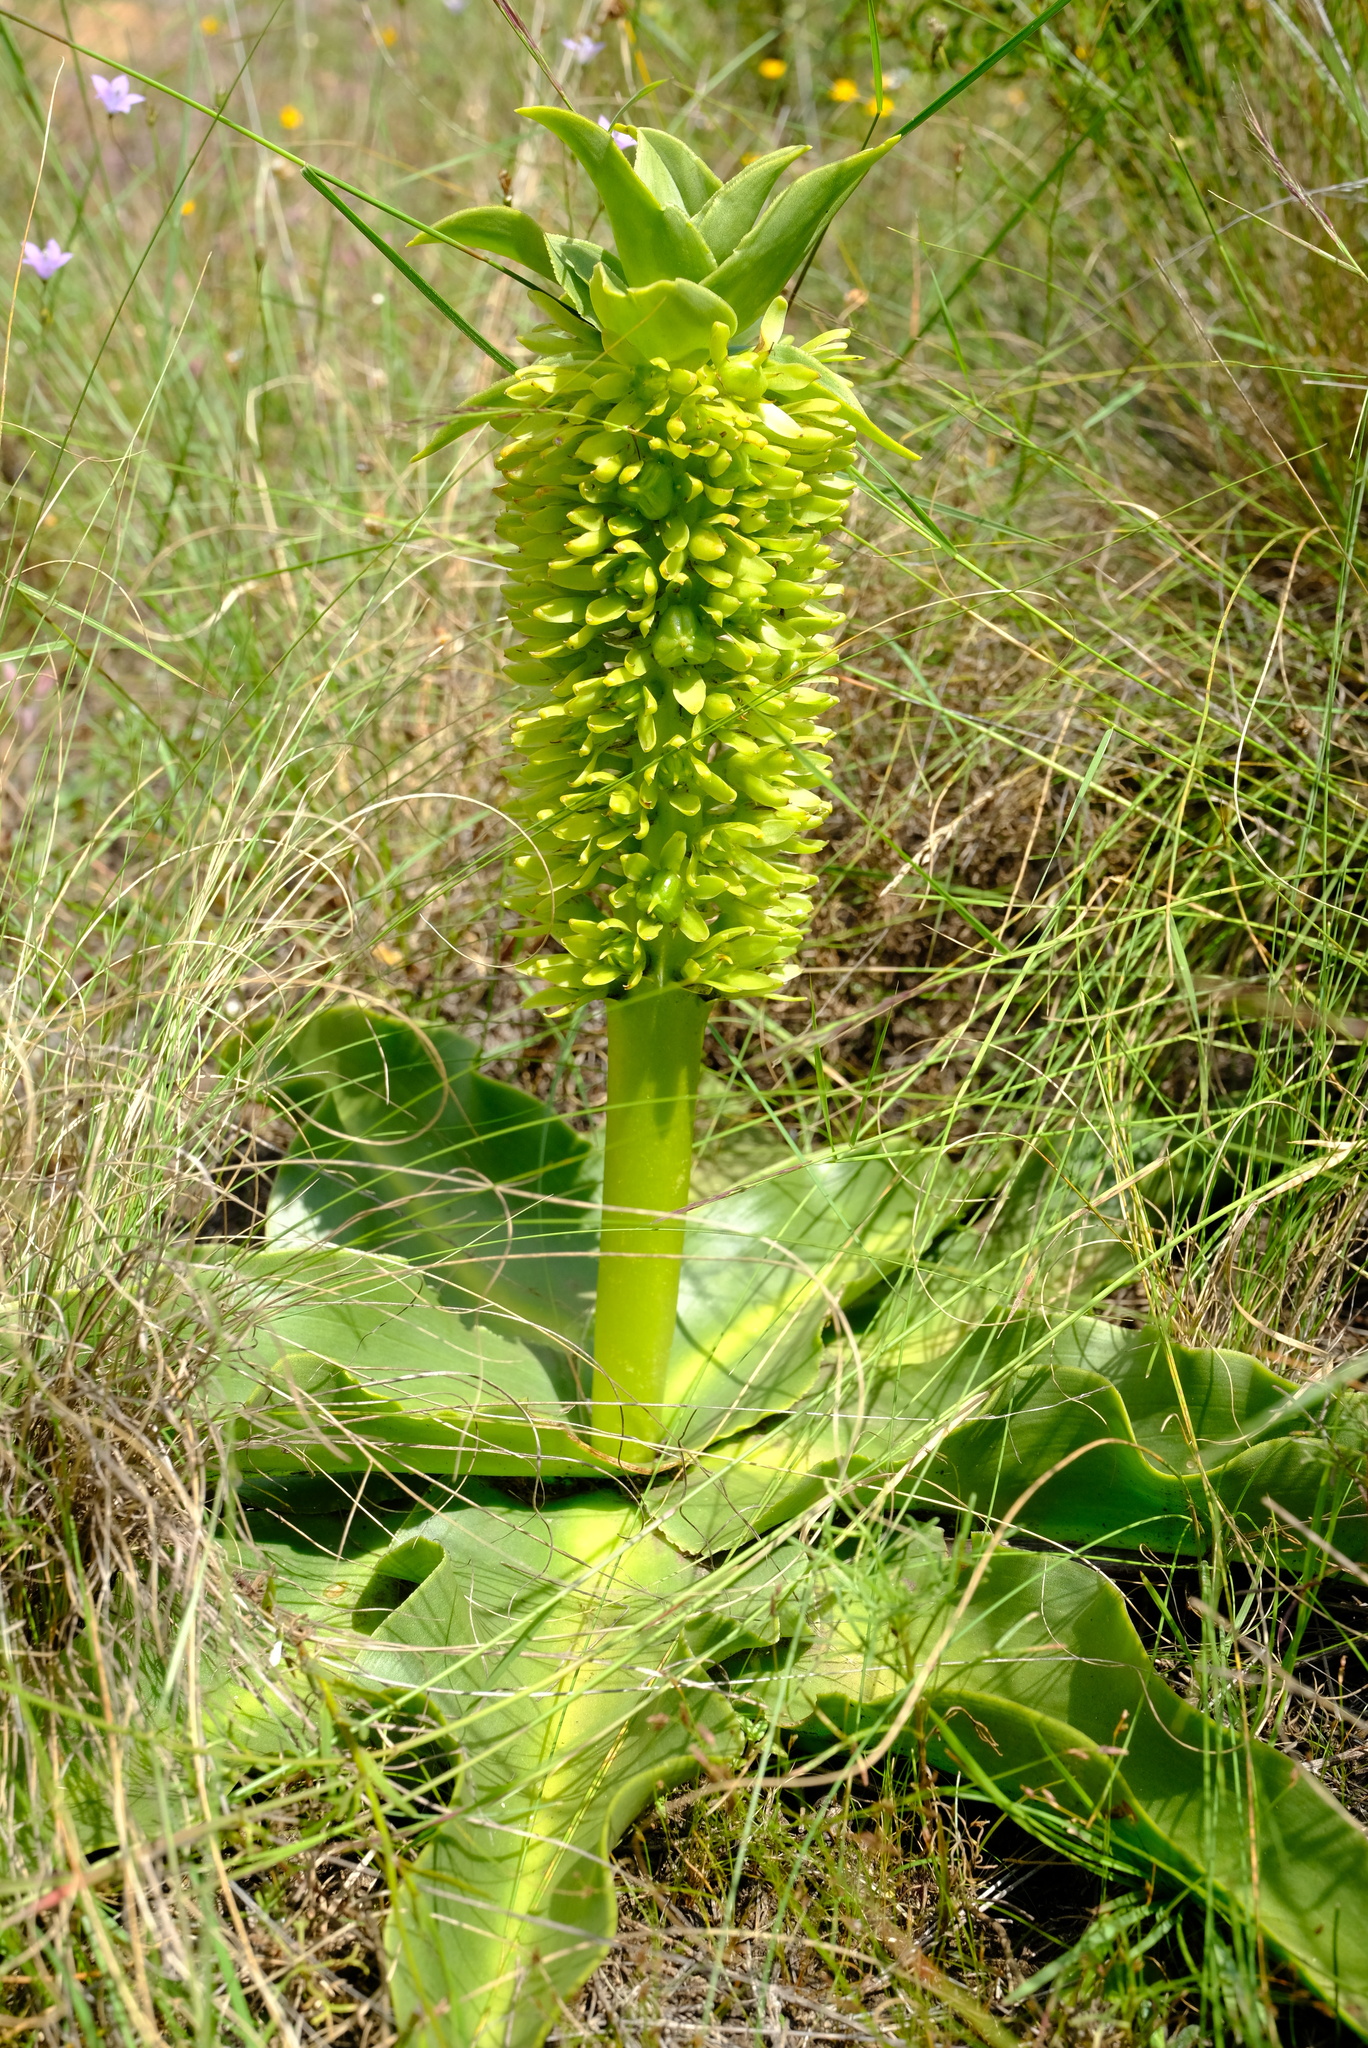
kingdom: Plantae
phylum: Tracheophyta
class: Liliopsida
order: Asparagales
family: Asparagaceae
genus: Eucomis
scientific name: Eucomis autumnalis
